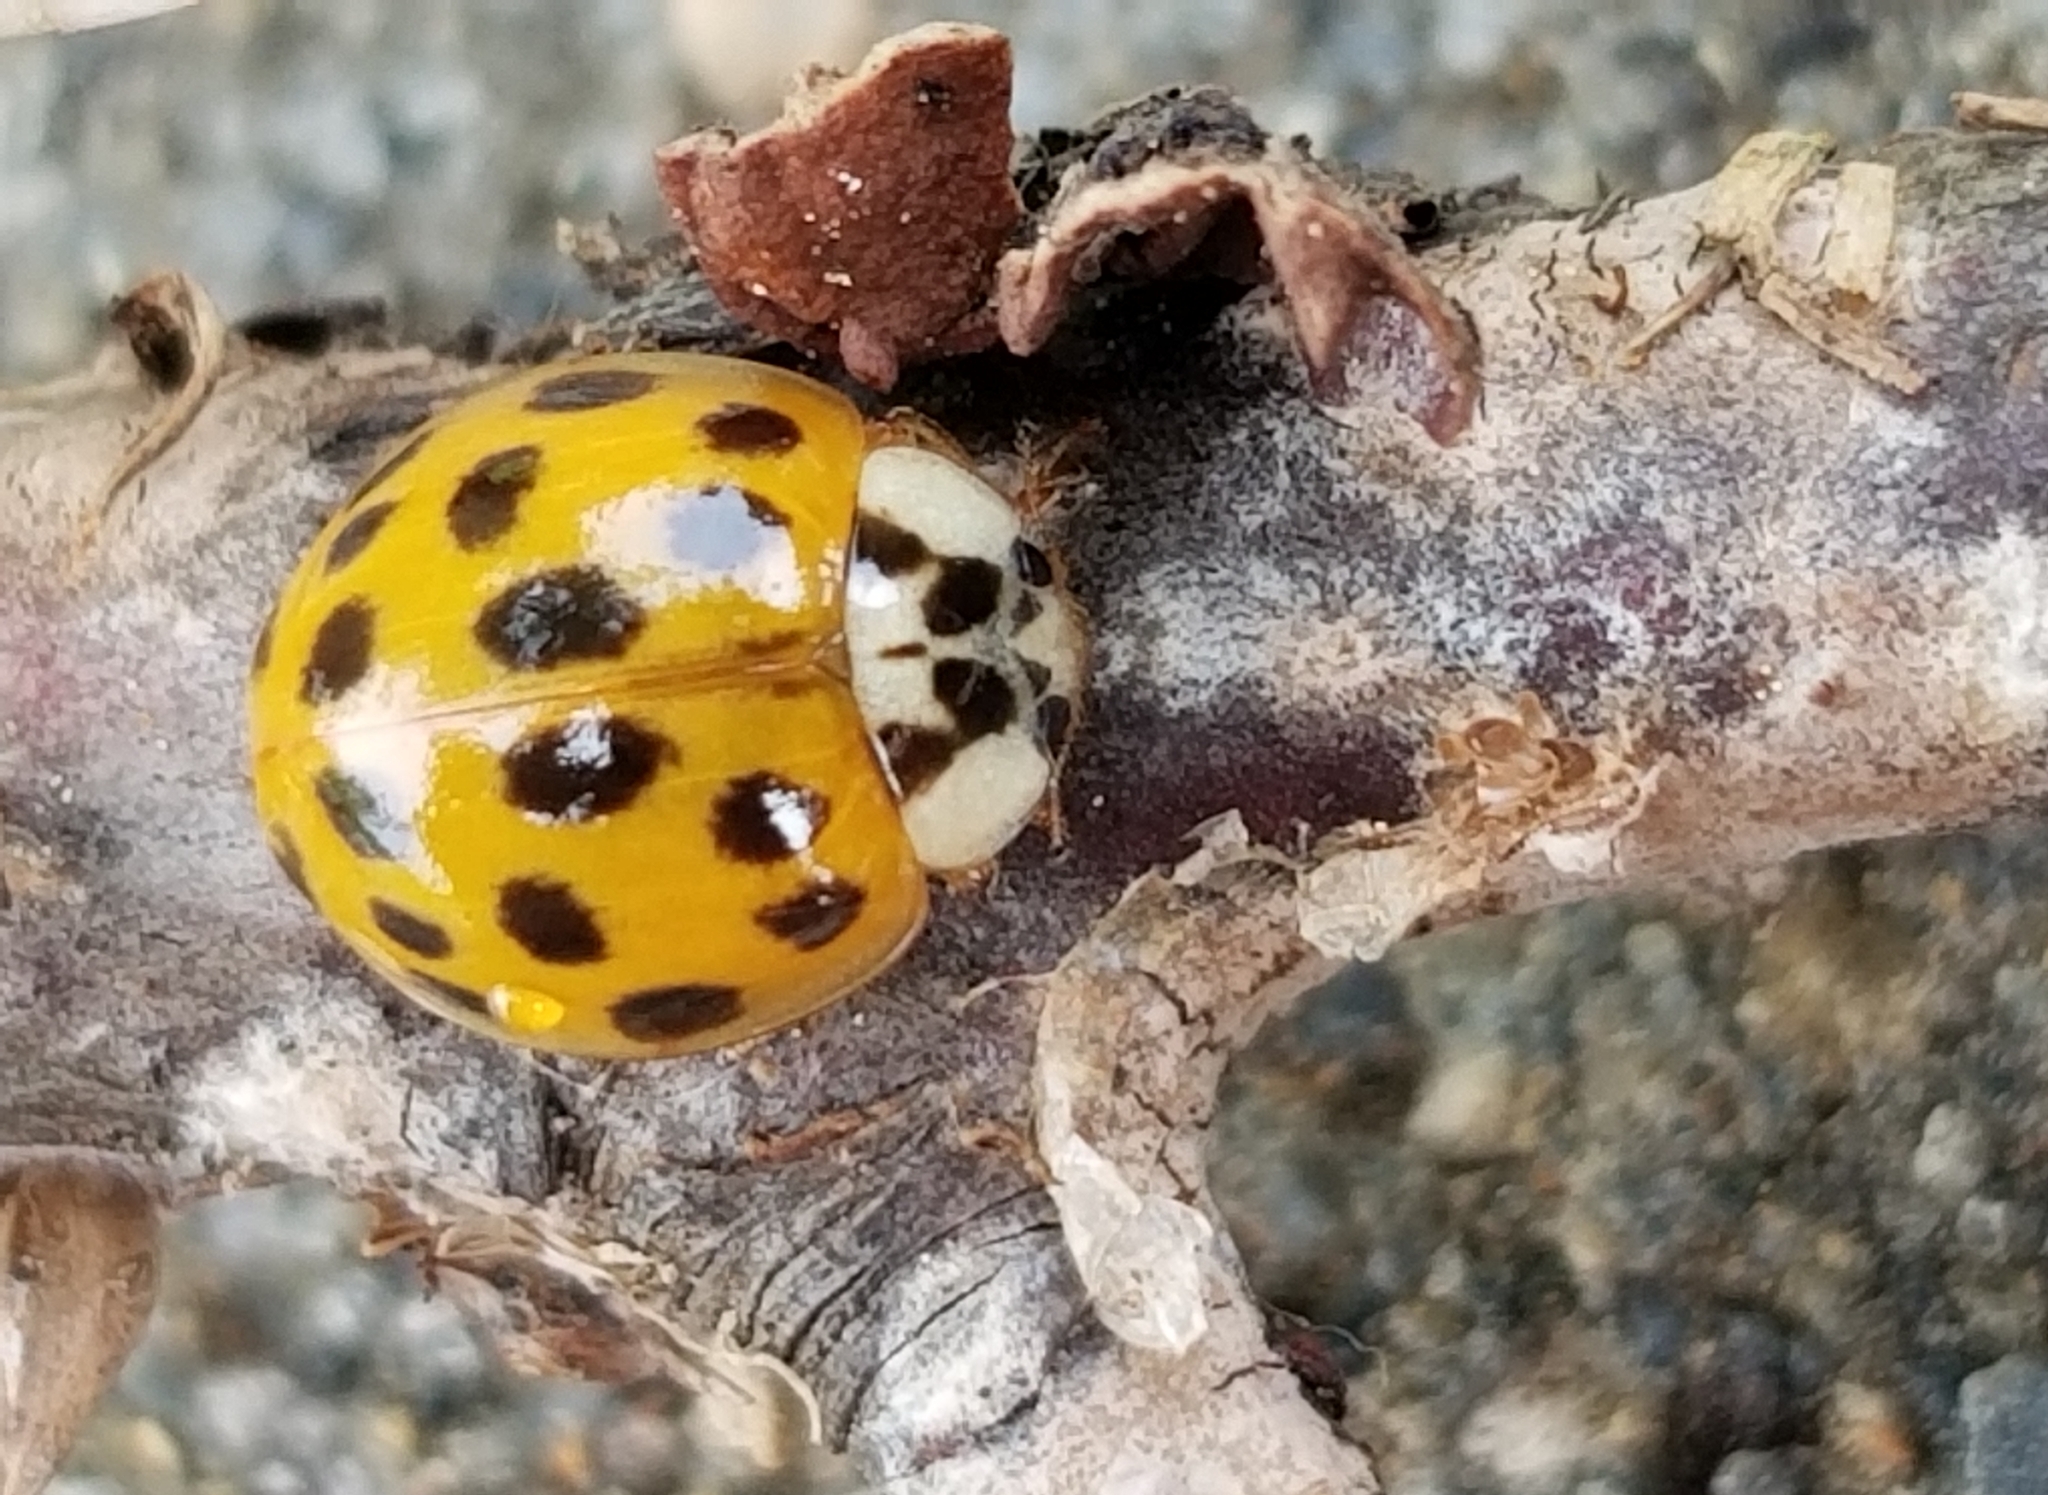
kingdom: Animalia
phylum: Arthropoda
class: Insecta
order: Coleoptera
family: Coccinellidae
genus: Harmonia
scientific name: Harmonia axyridis
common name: Harlequin ladybird
